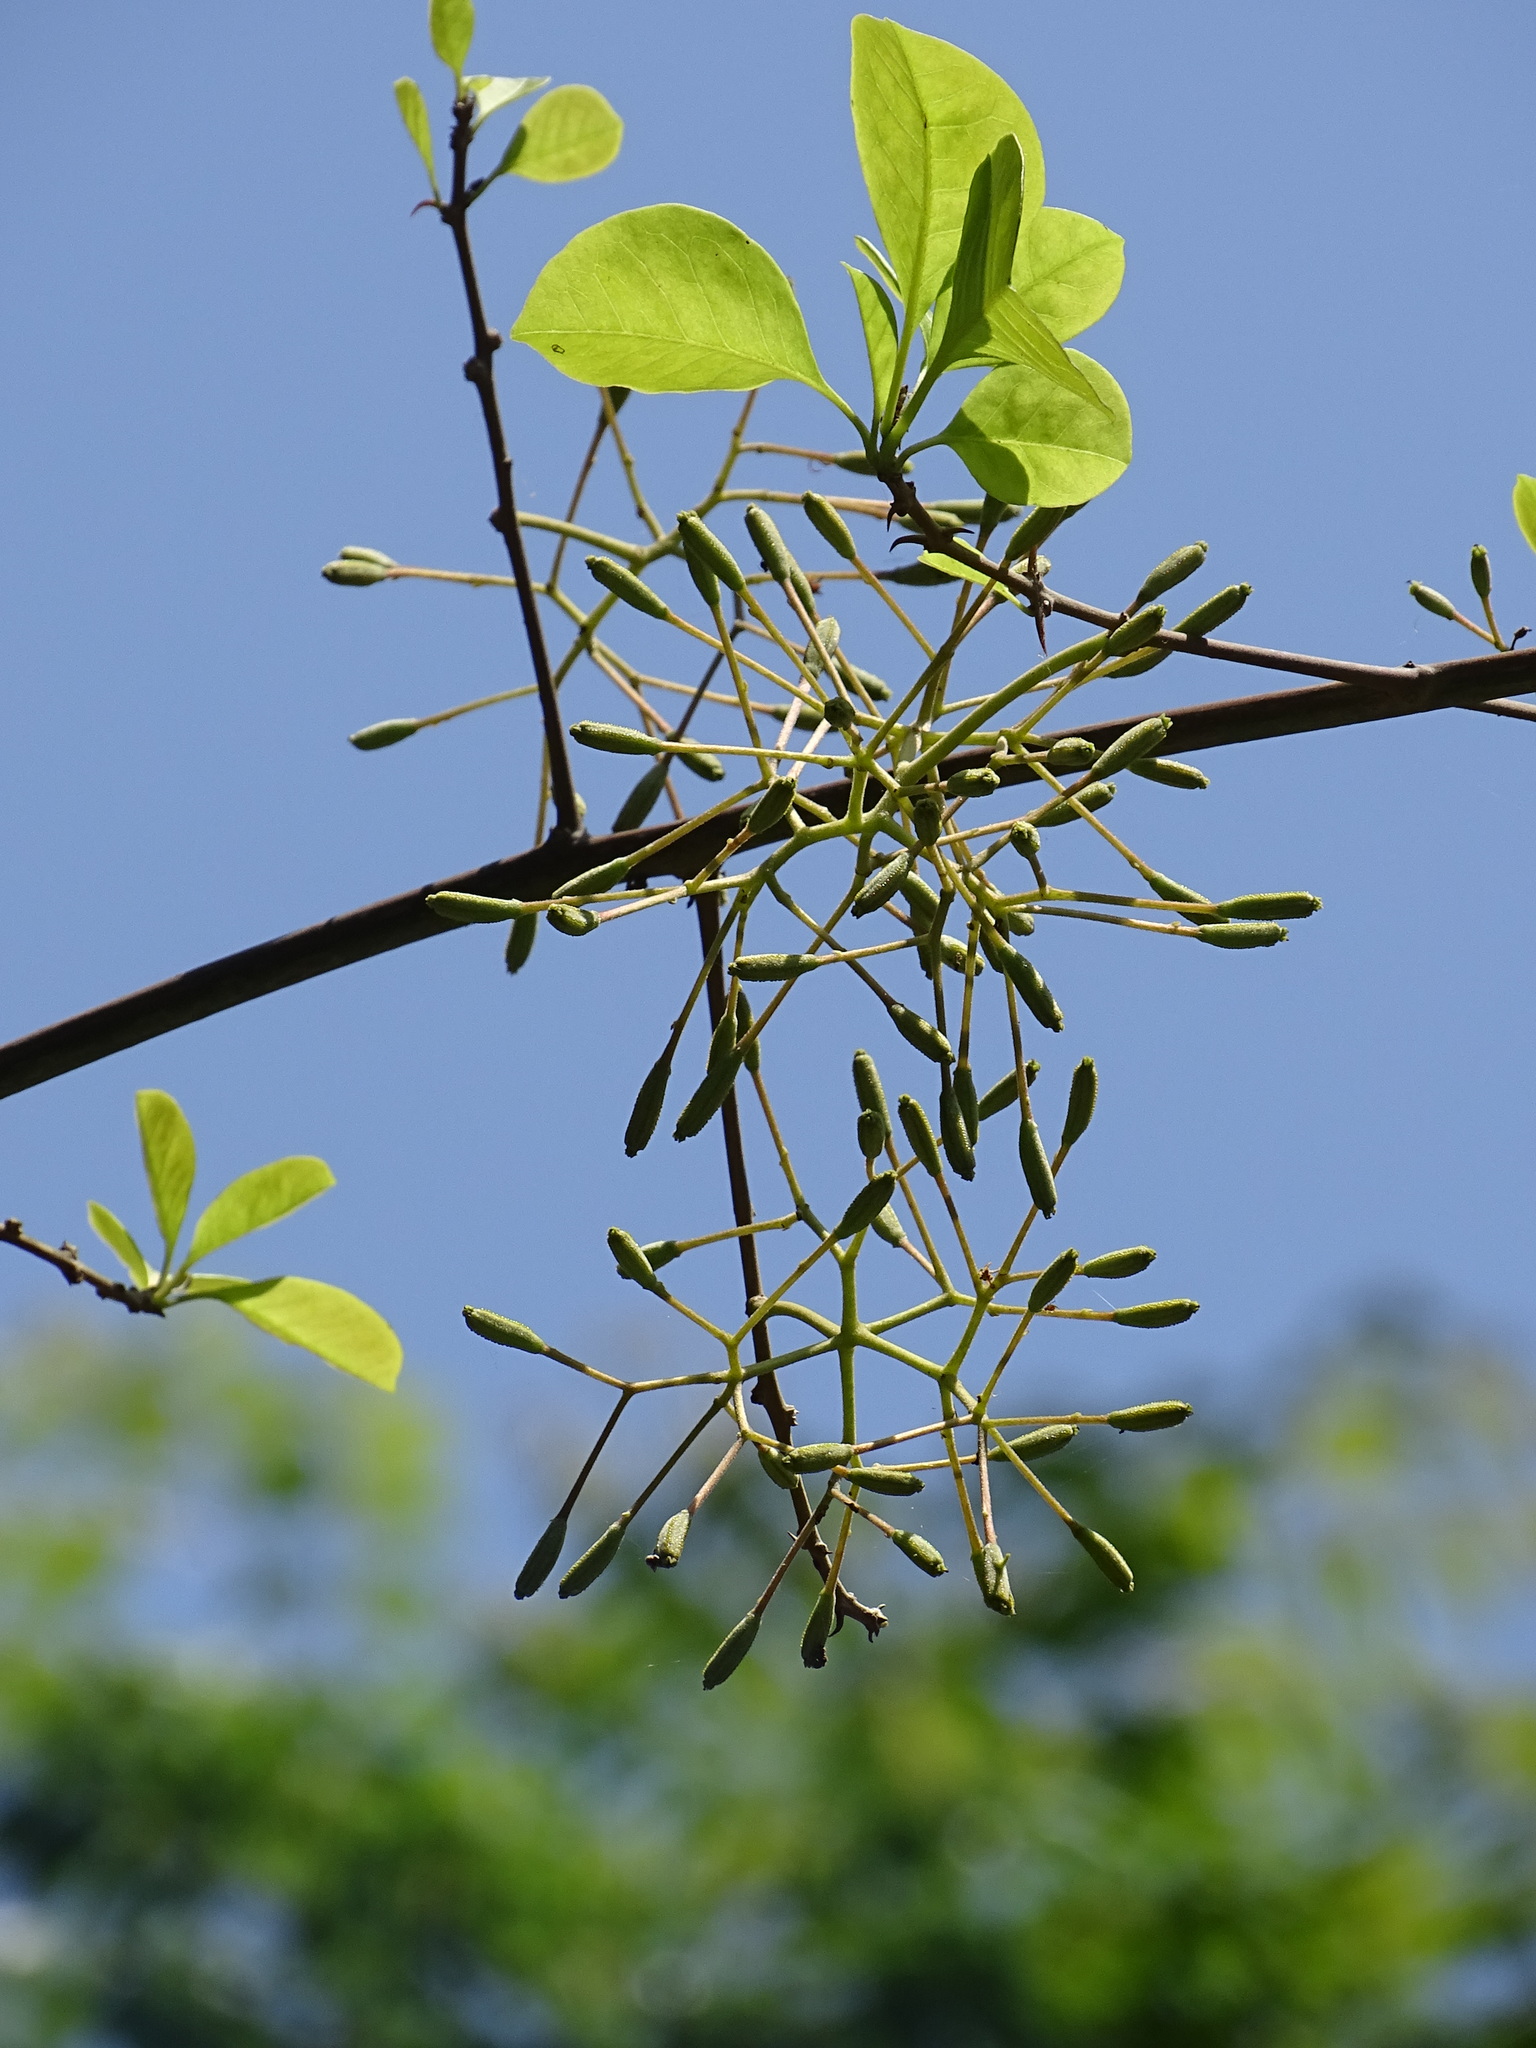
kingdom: Plantae
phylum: Tracheophyta
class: Magnoliopsida
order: Caryophyllales
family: Nyctaginaceae
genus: Pisonia
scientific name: Pisonia aculeata
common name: Cockspur vine
